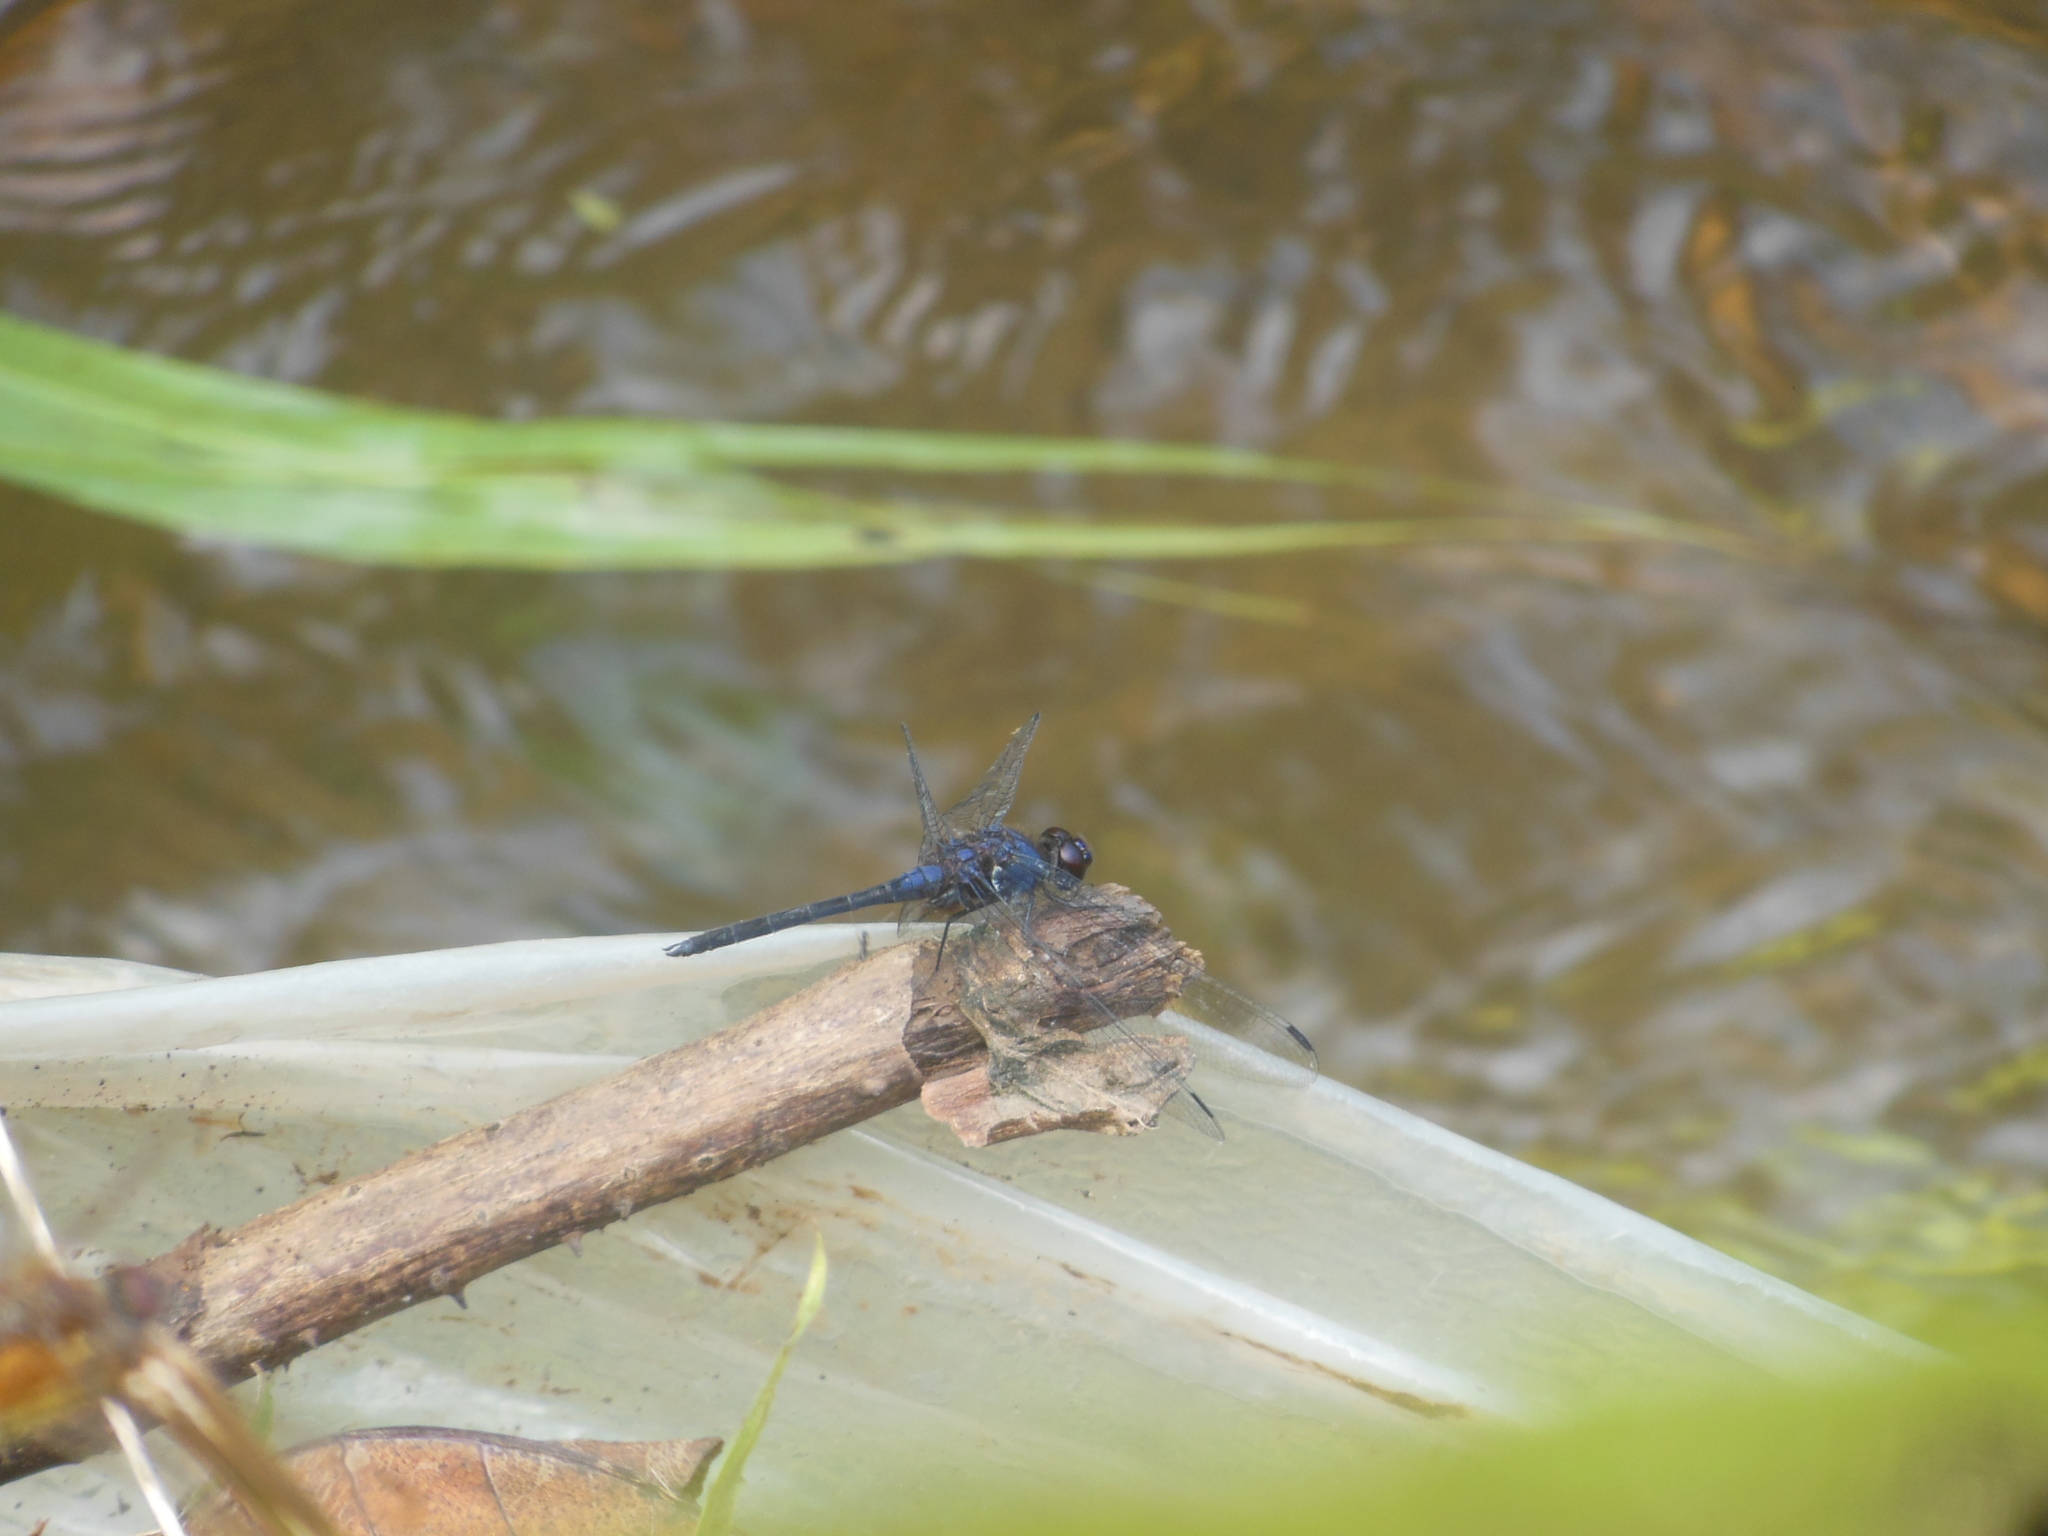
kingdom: Animalia
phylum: Arthropoda
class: Insecta
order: Odonata
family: Libellulidae
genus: Trithemis
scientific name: Trithemis festiva
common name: Indigo dropwing
